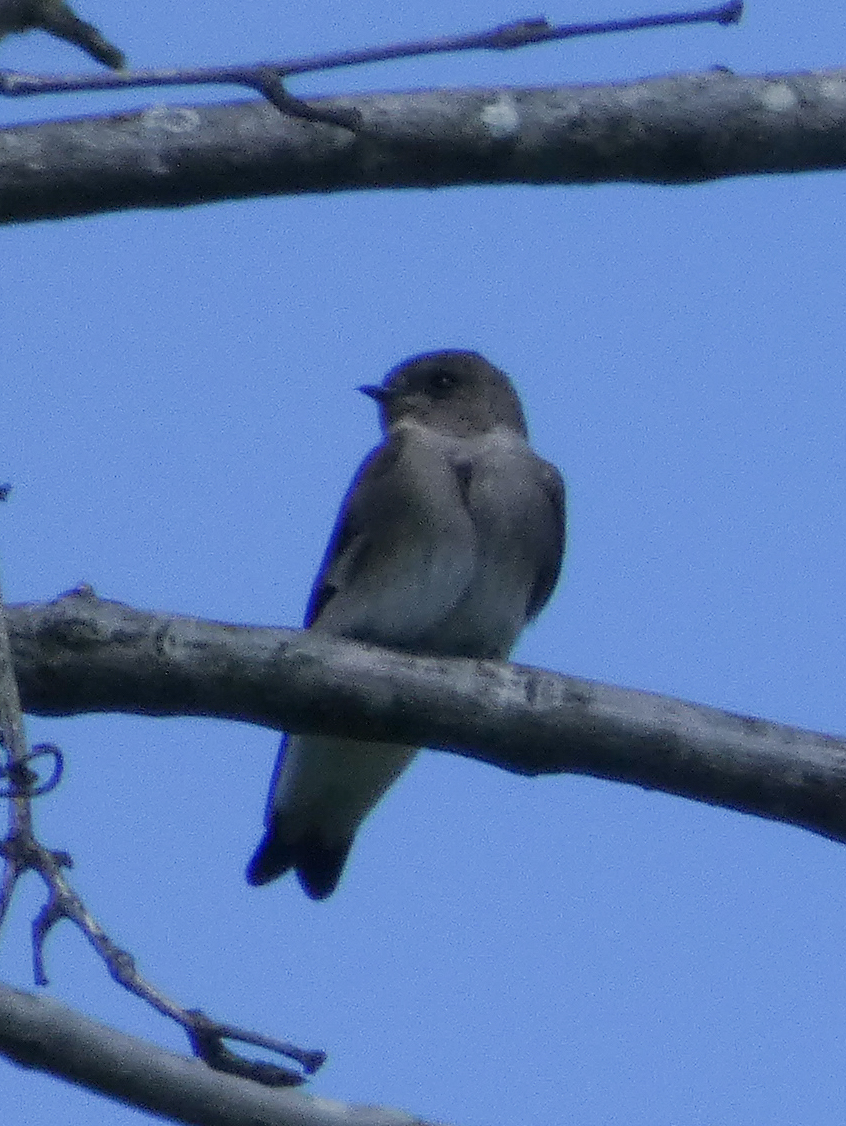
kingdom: Animalia
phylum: Chordata
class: Aves
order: Passeriformes
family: Hirundinidae
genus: Stelgidopteryx
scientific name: Stelgidopteryx serripennis
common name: Northern rough-winged swallow
